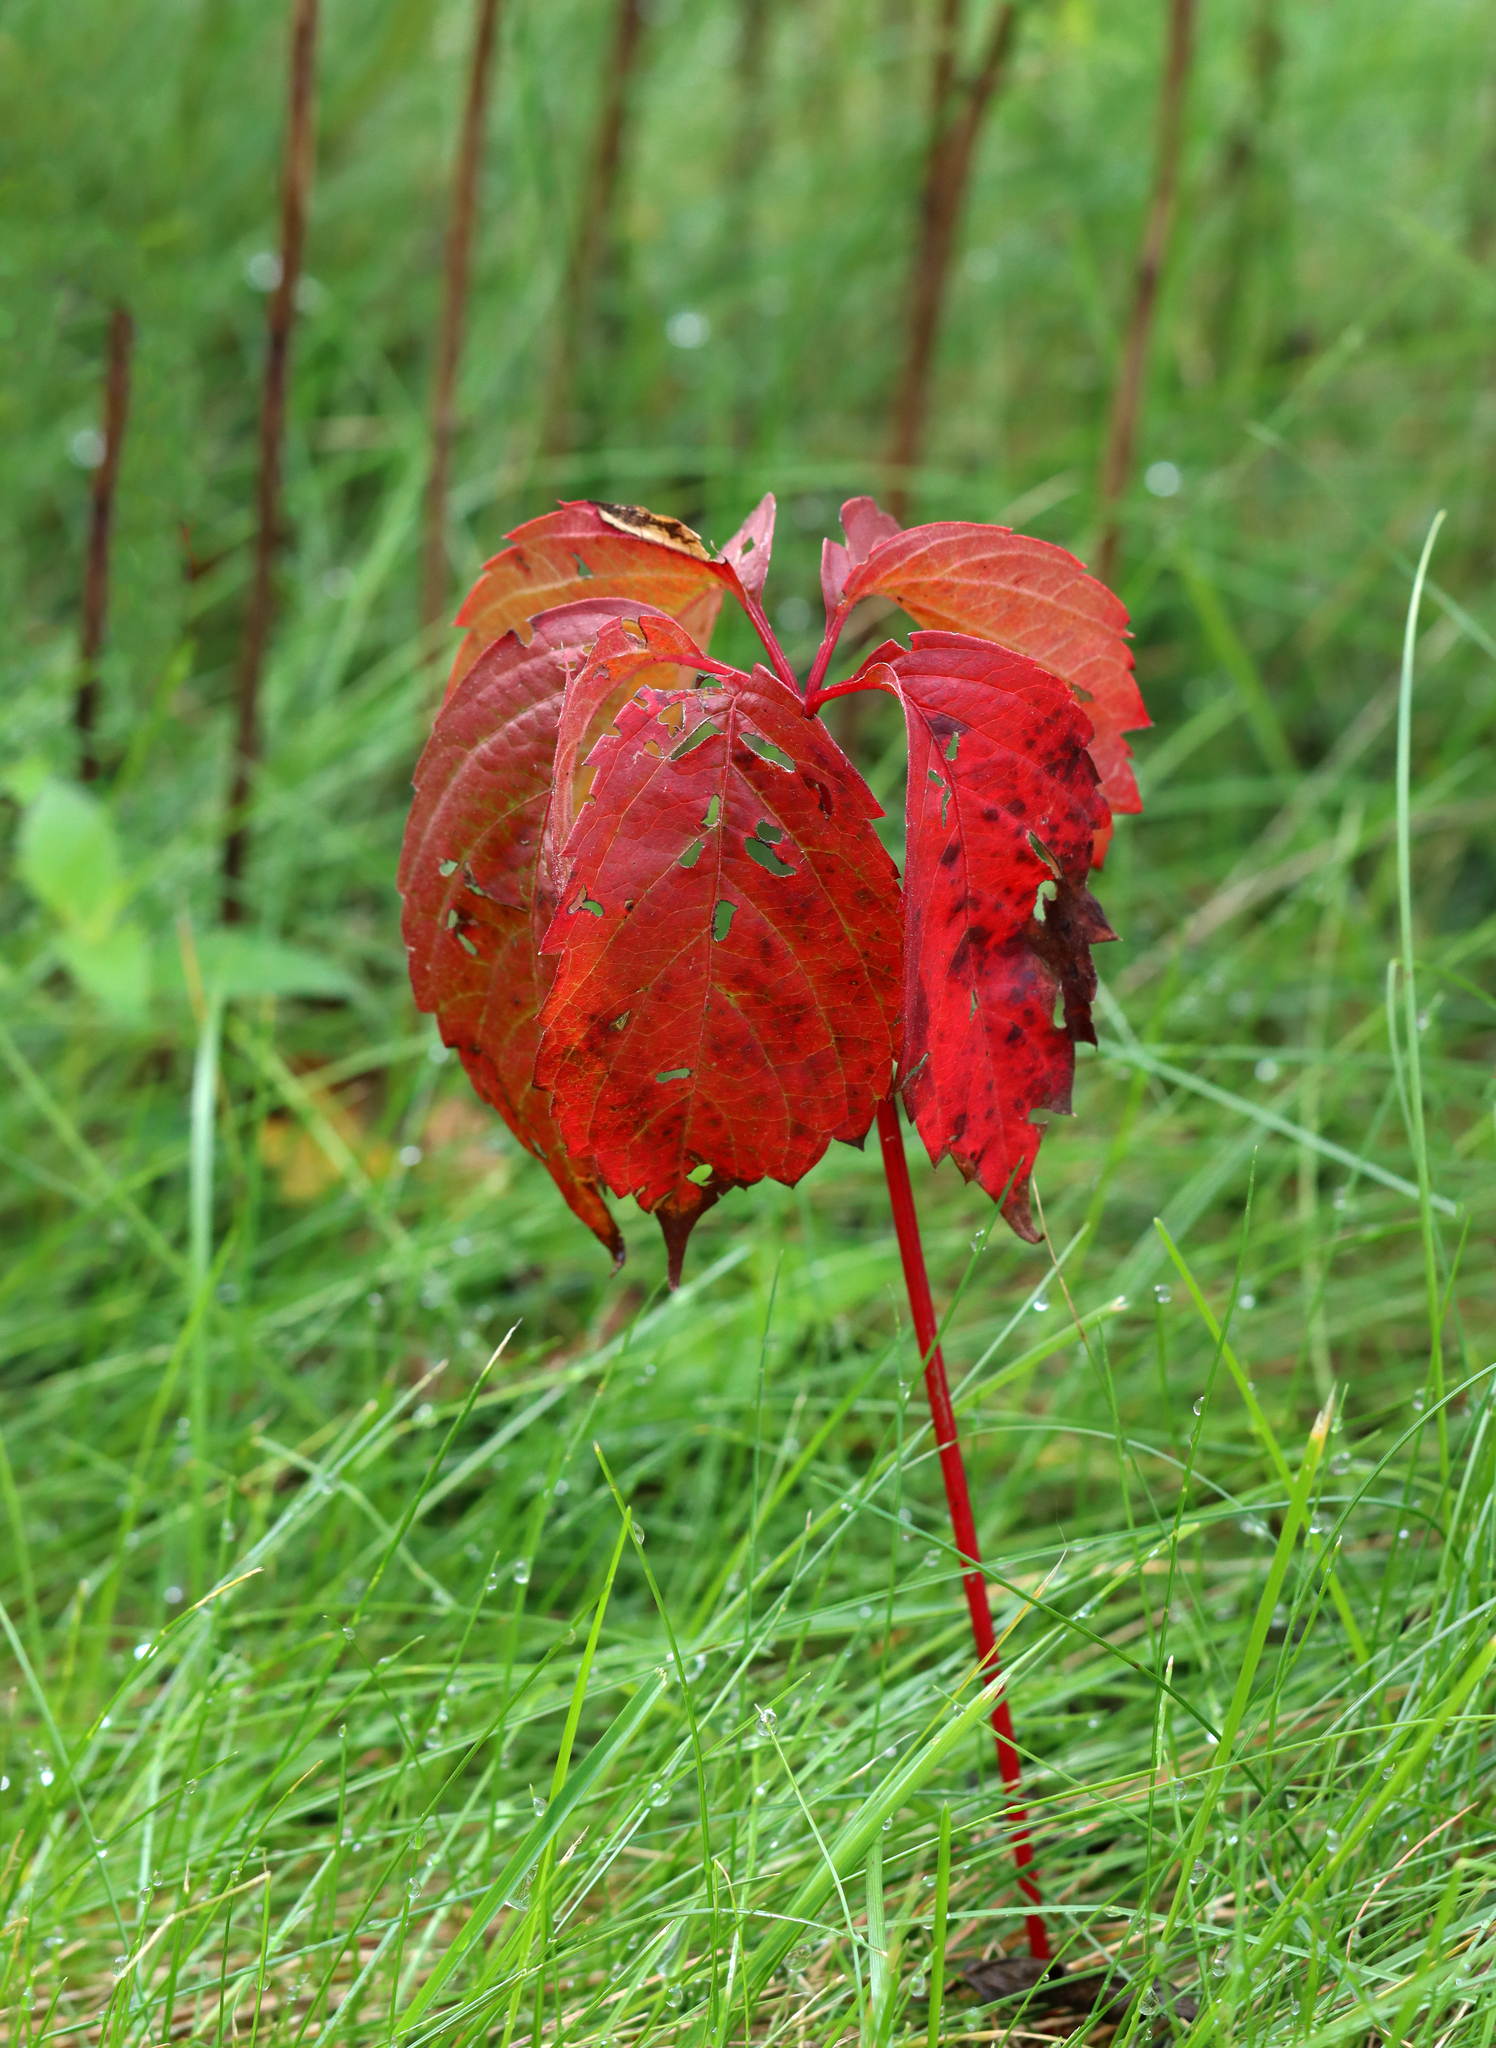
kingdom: Plantae
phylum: Tracheophyta
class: Magnoliopsida
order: Vitales
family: Vitaceae
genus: Parthenocissus
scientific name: Parthenocissus quinquefolia
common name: Virginia-creeper
